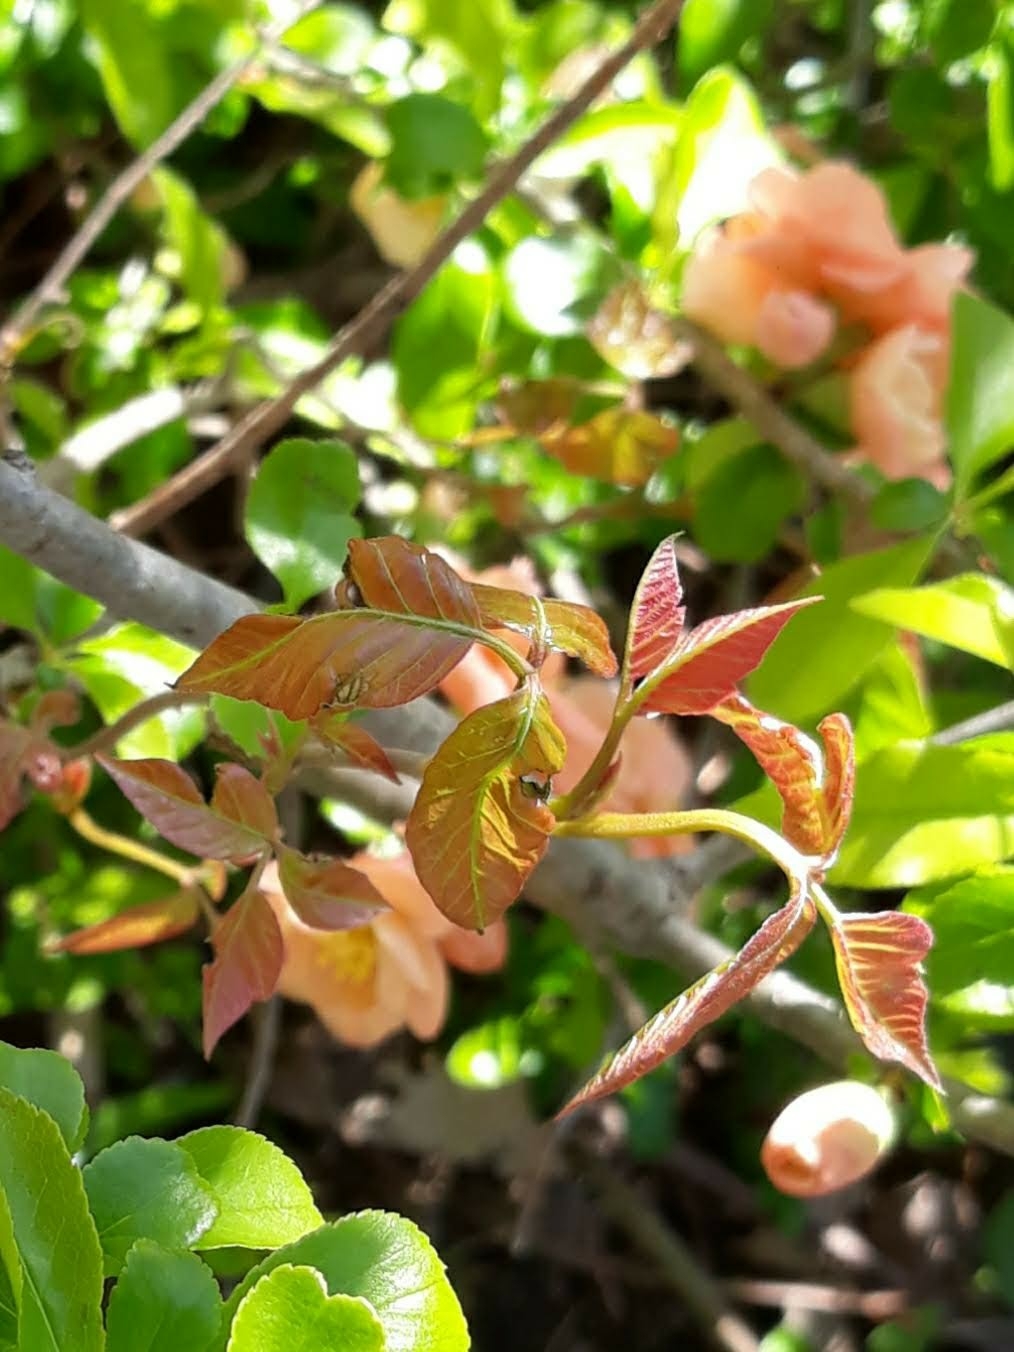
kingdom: Plantae
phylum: Tracheophyta
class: Magnoliopsida
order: Sapindales
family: Anacardiaceae
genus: Toxicodendron
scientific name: Toxicodendron radicans
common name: Poison ivy
